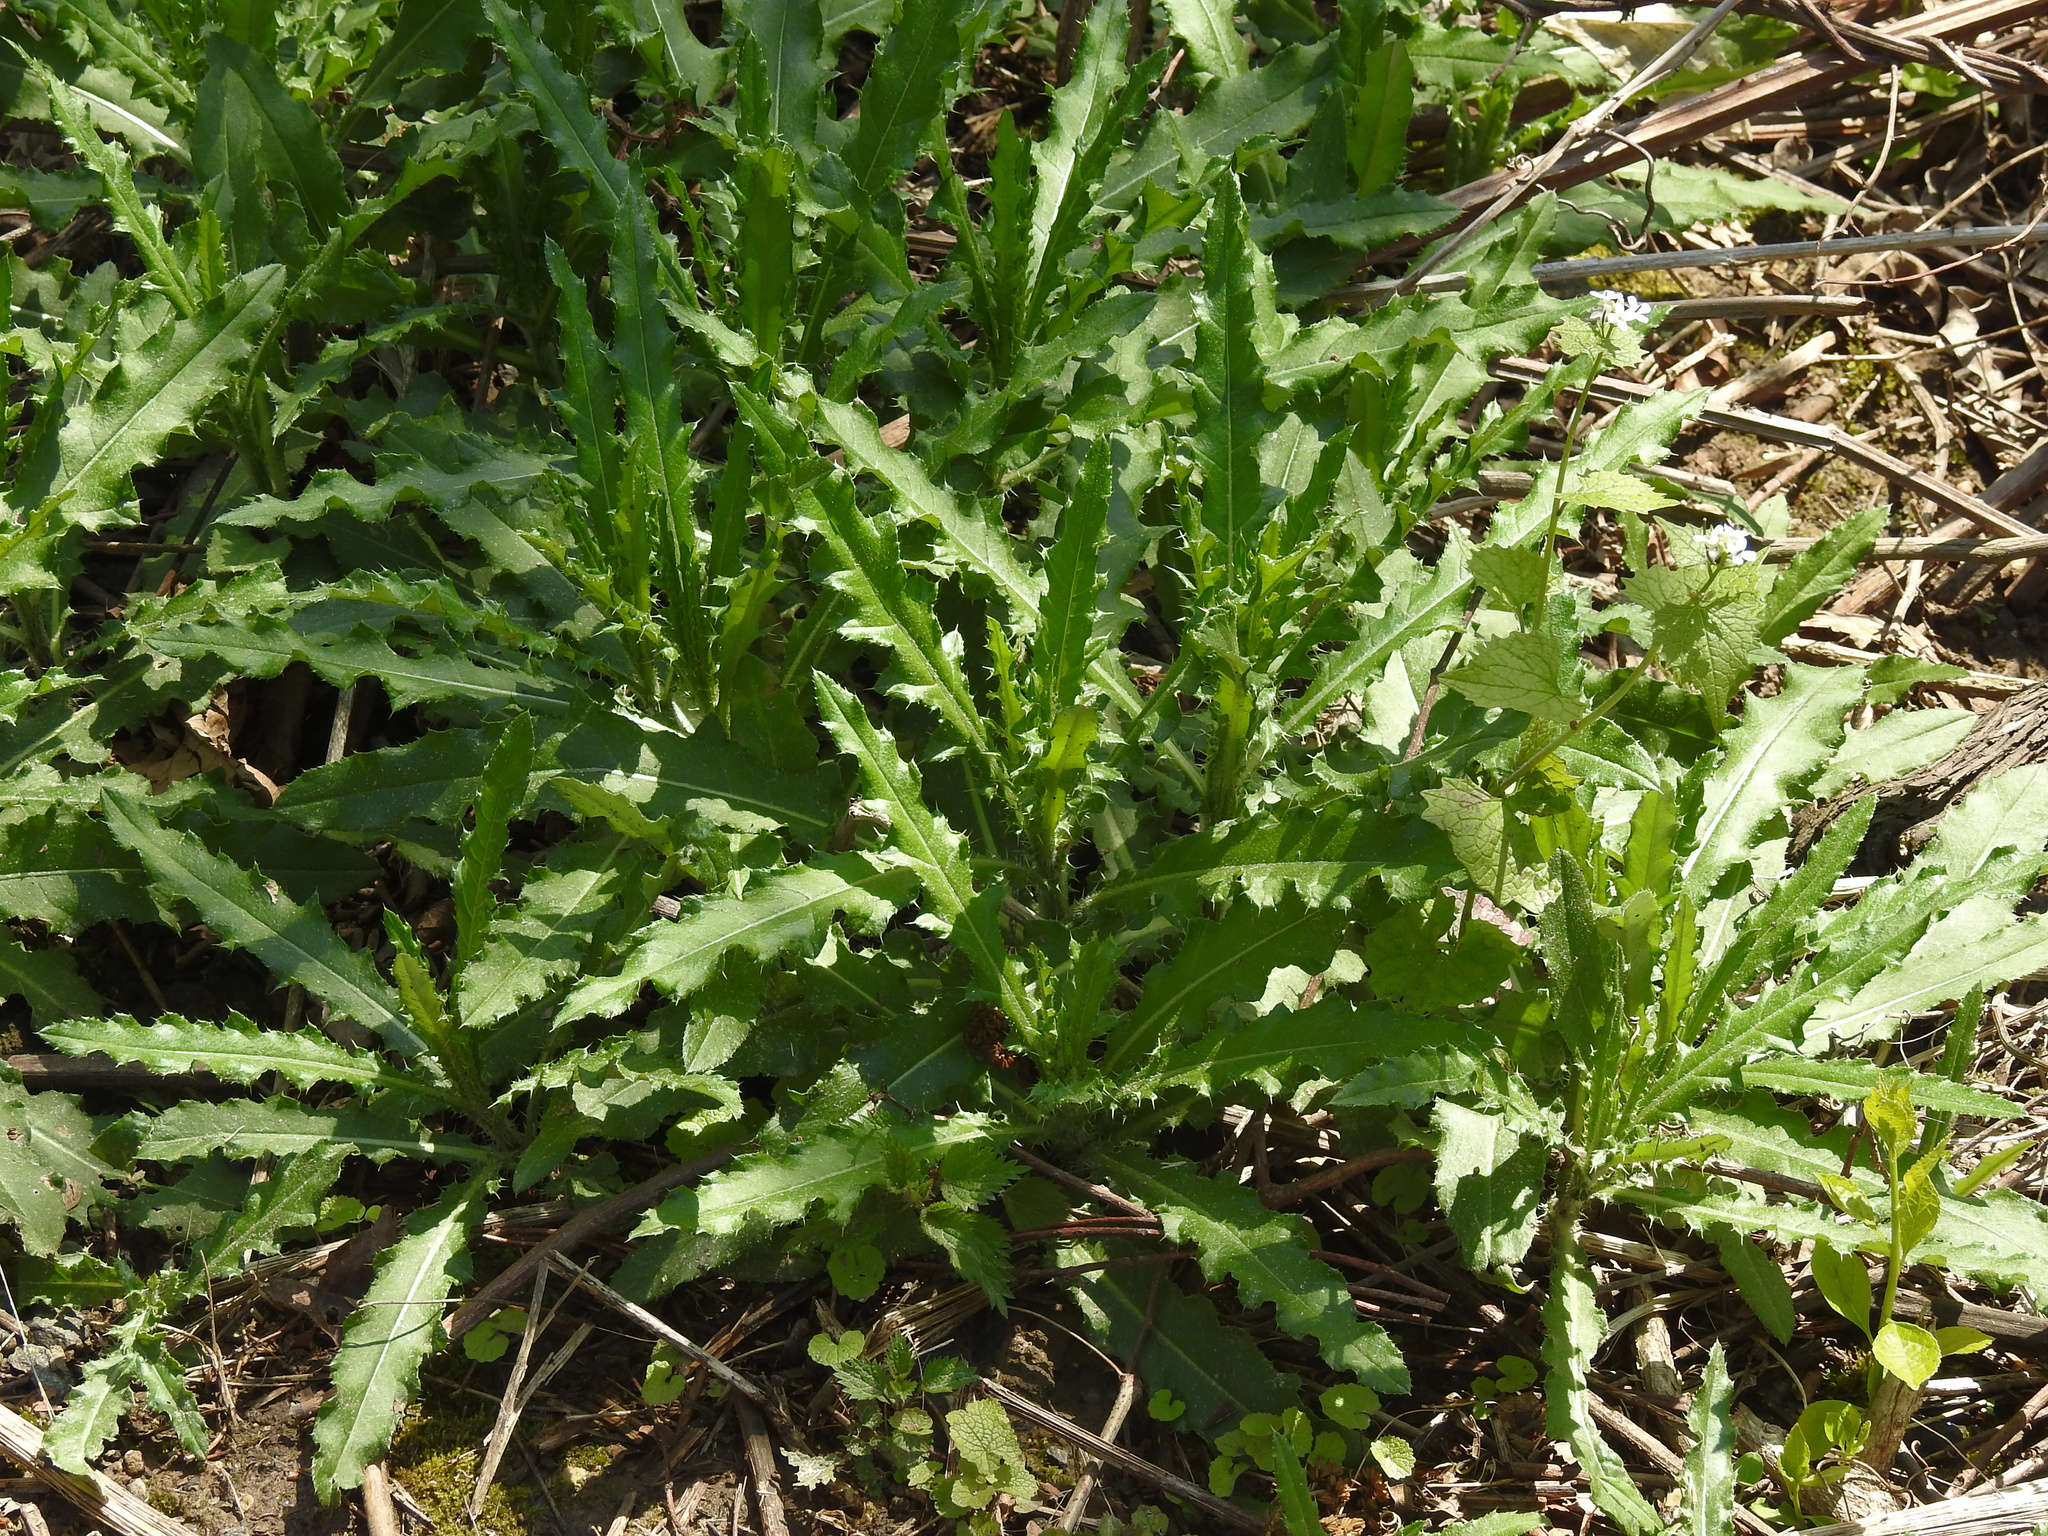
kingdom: Plantae
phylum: Tracheophyta
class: Magnoliopsida
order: Asterales
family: Asteraceae
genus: Cirsium
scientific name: Cirsium arvense
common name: Creeping thistle
